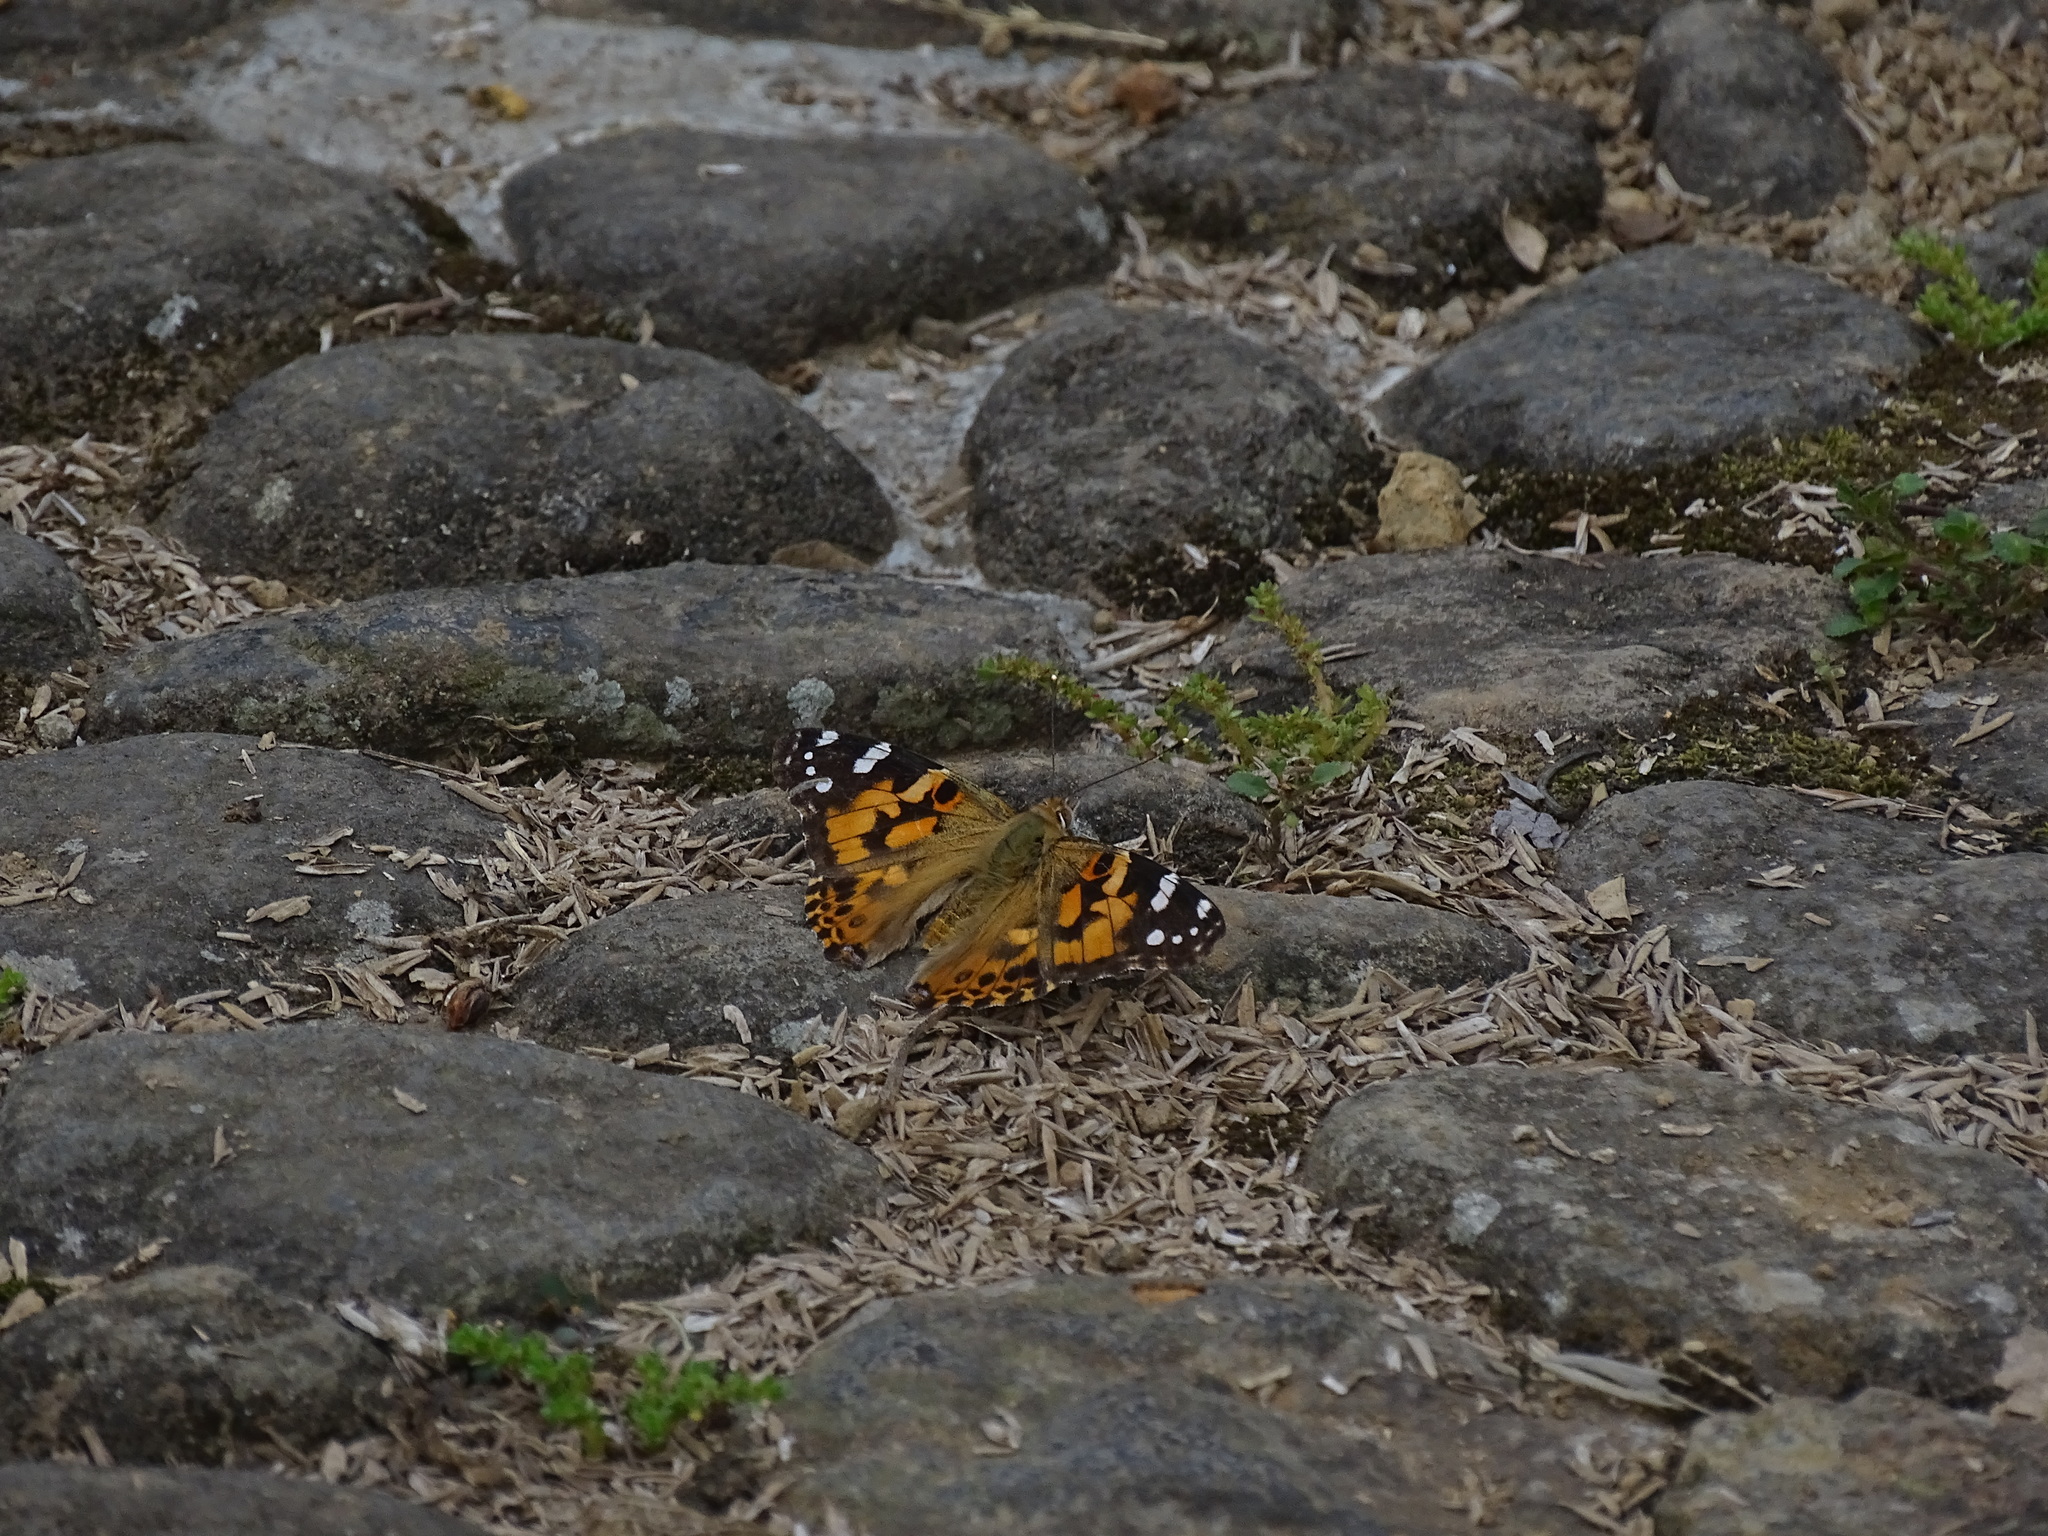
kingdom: Animalia
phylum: Arthropoda
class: Insecta
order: Lepidoptera
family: Nymphalidae
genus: Vanessa
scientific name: Vanessa cardui
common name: Painted lady
